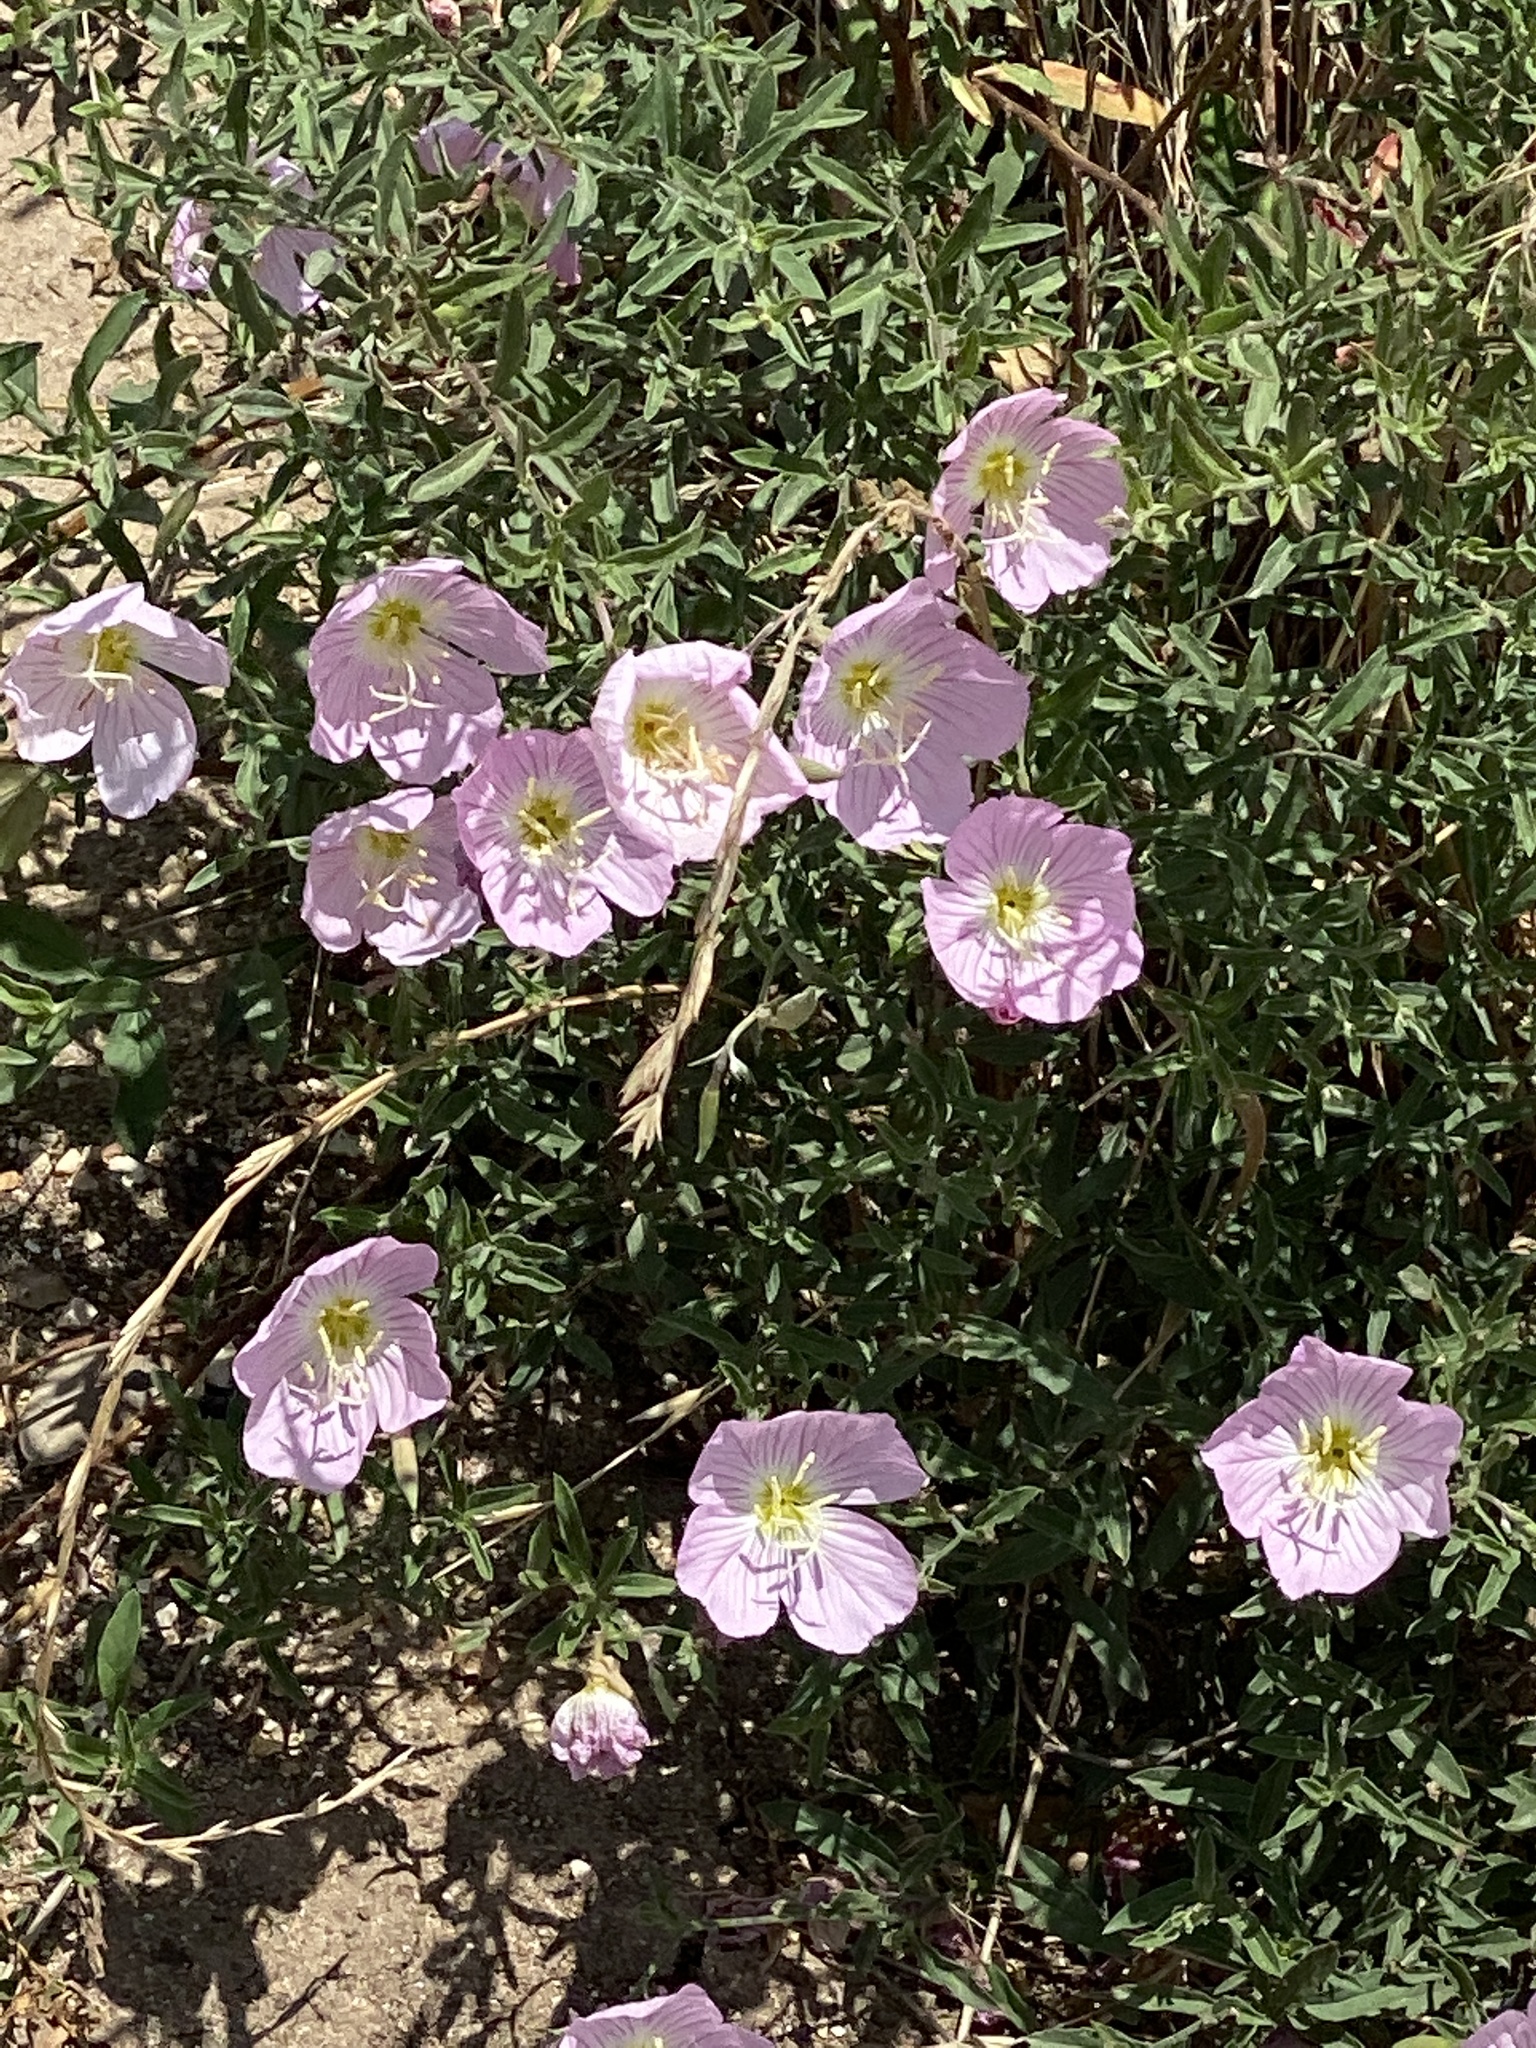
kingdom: Plantae
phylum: Tracheophyta
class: Magnoliopsida
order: Myrtales
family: Onagraceae
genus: Oenothera
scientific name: Oenothera speciosa
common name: White evening-primrose
